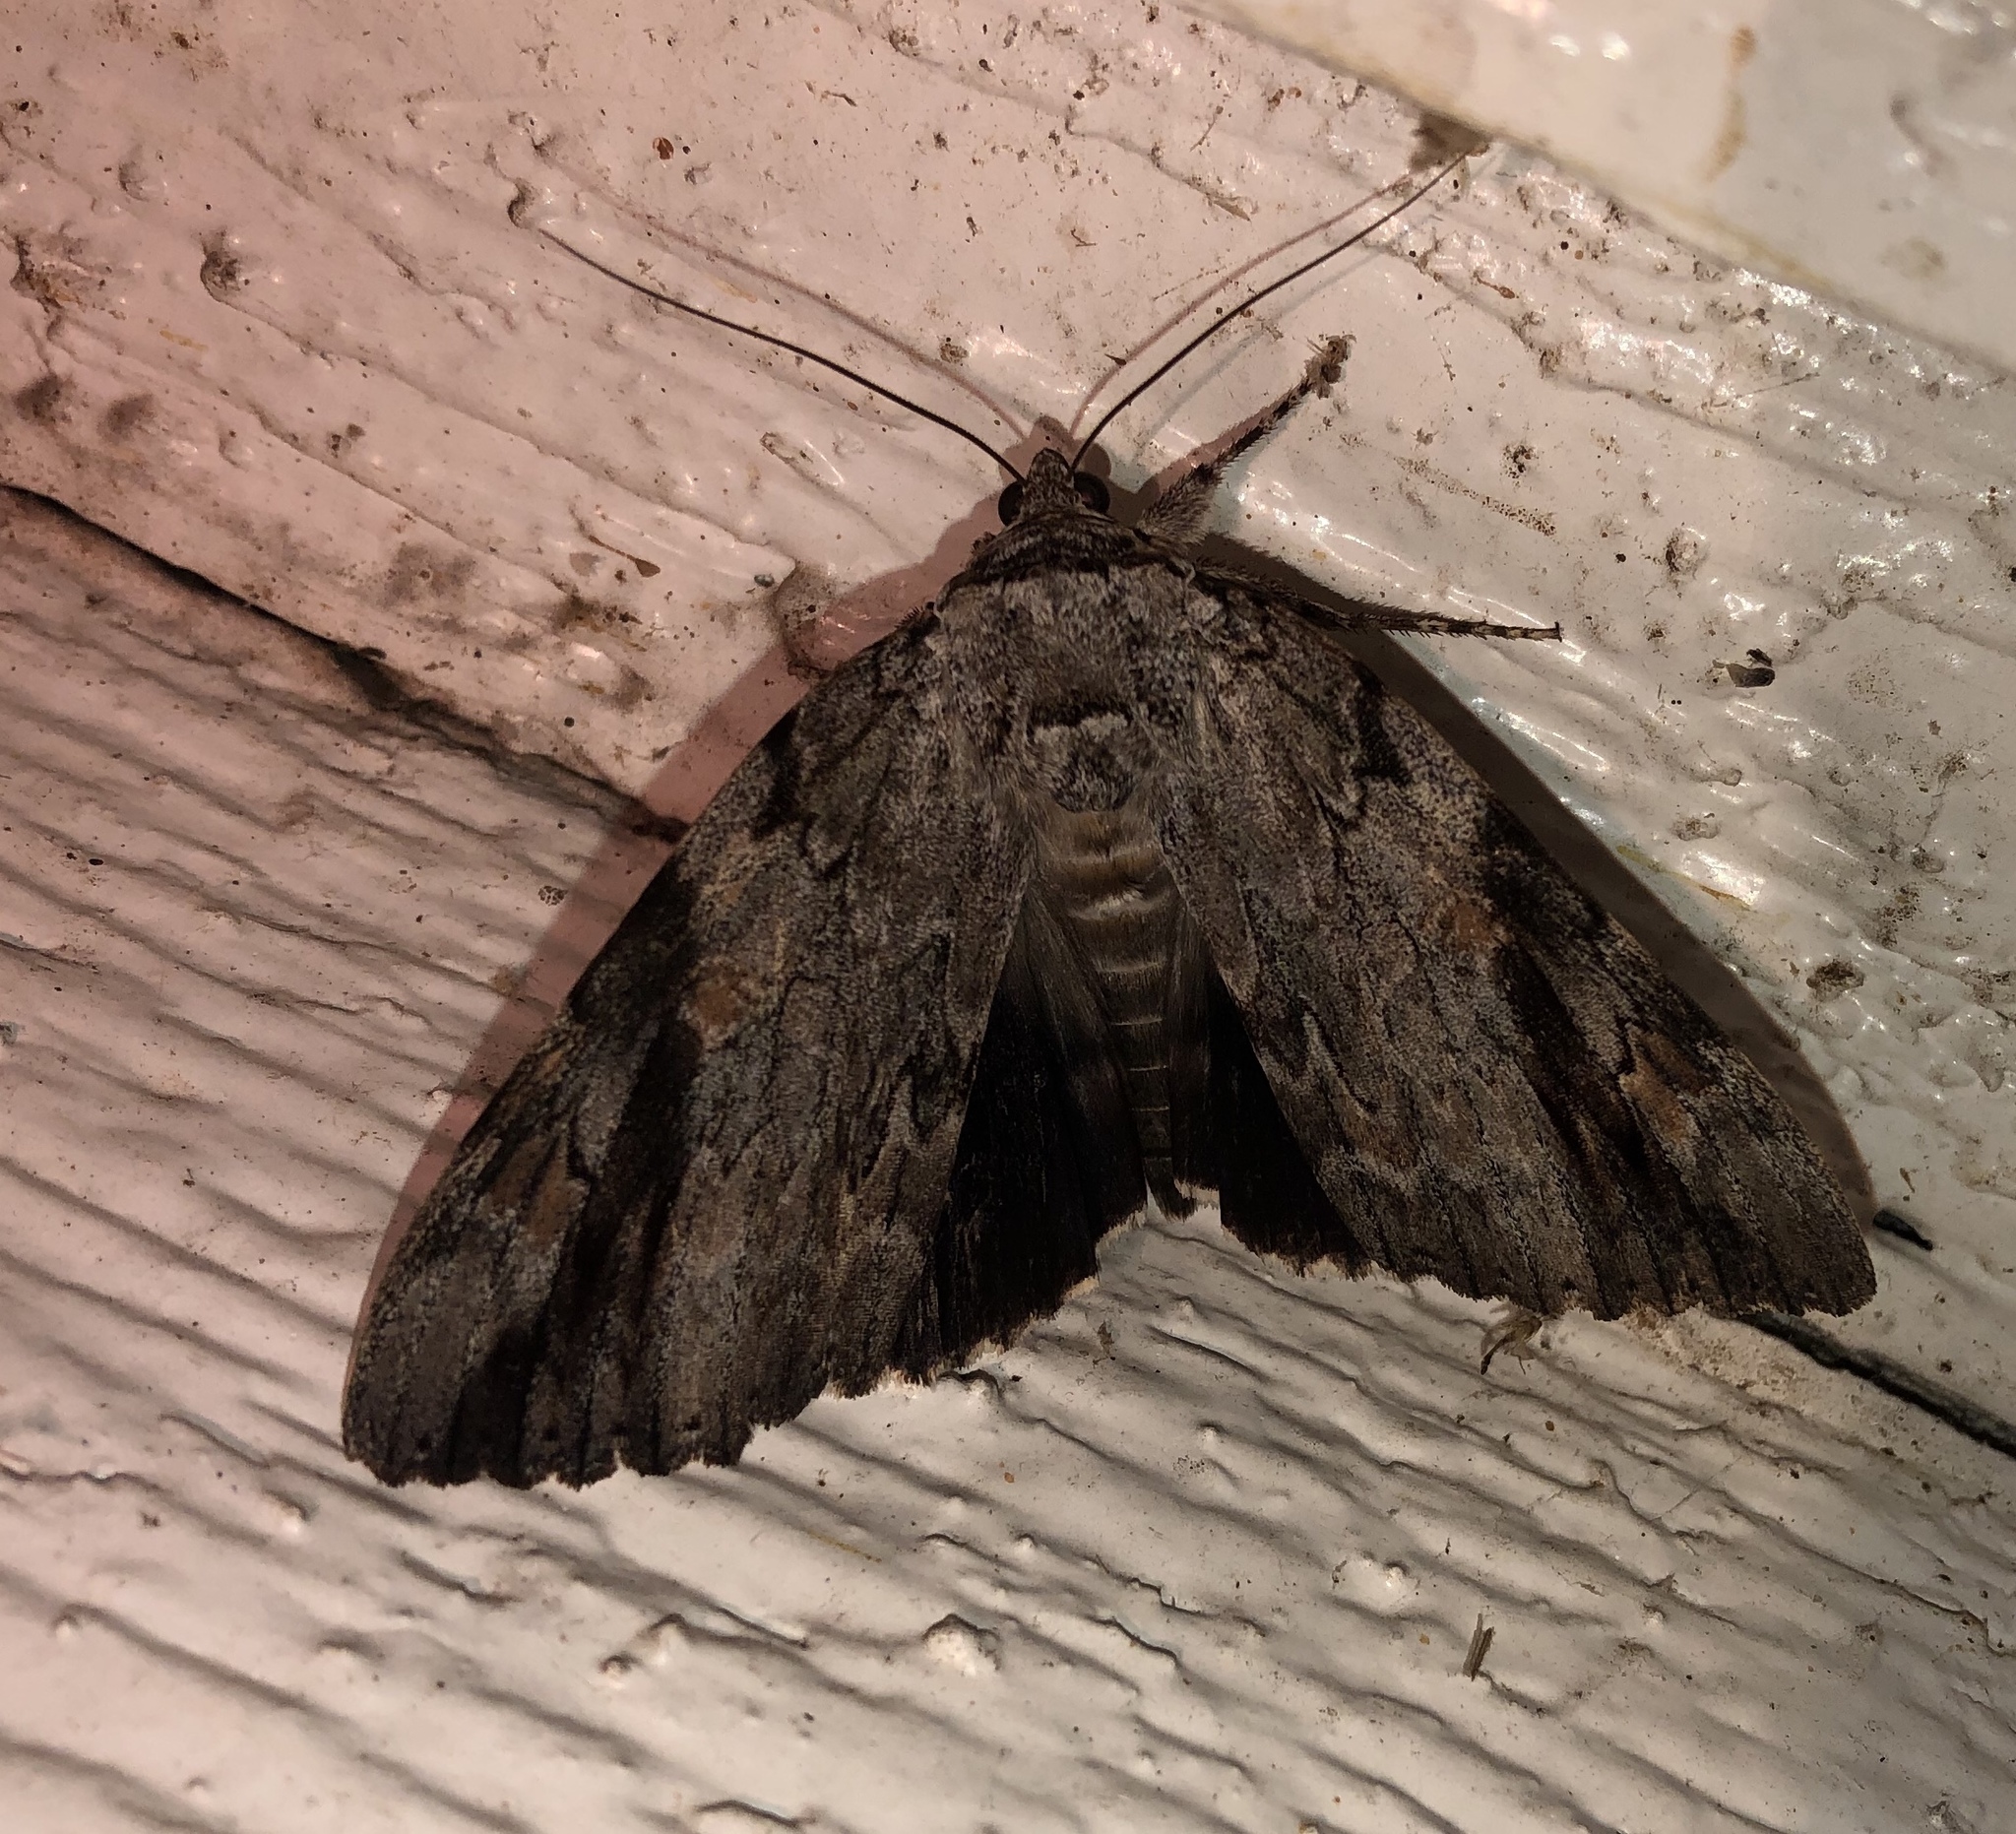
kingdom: Animalia
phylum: Arthropoda
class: Insecta
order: Lepidoptera
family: Erebidae
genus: Catocala
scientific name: Catocala maestosa
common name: Sad underwing
